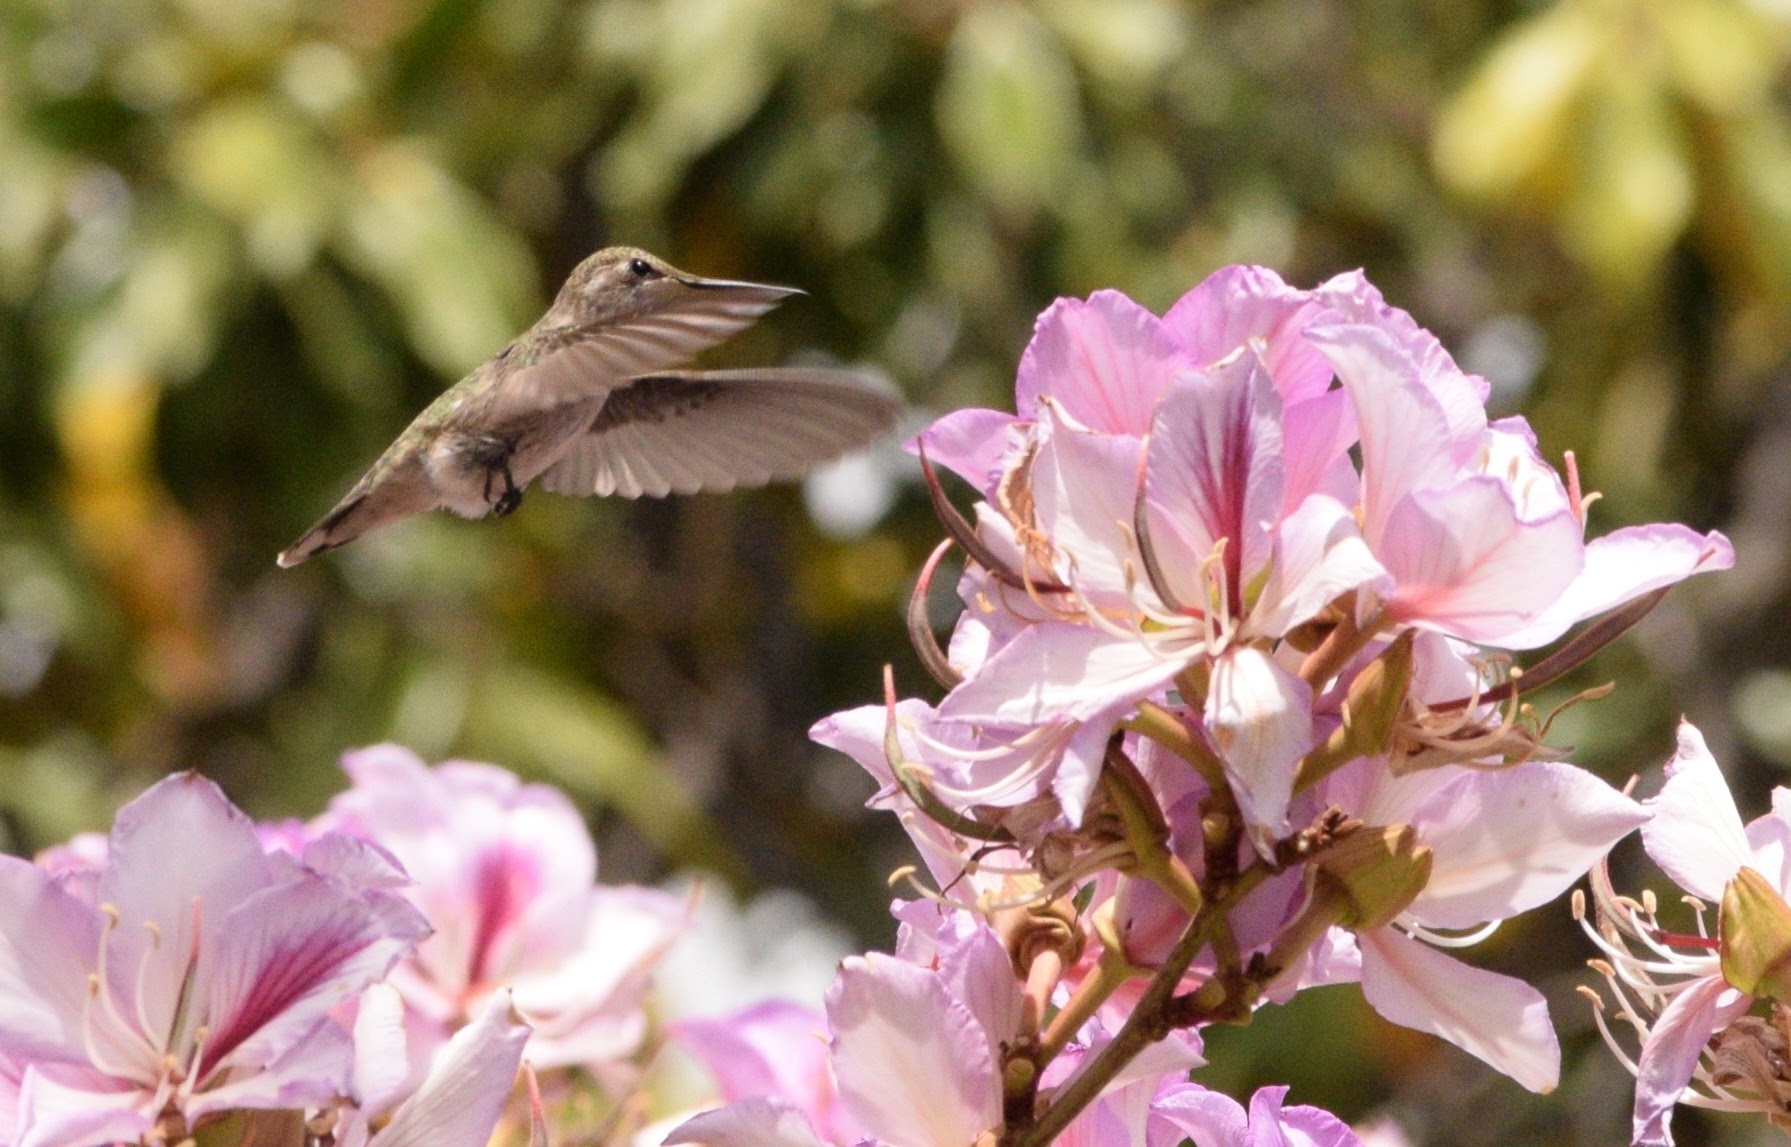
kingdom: Animalia
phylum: Chordata
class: Aves
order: Apodiformes
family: Trochilidae
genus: Calypte
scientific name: Calypte anna
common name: Anna's hummingbird
